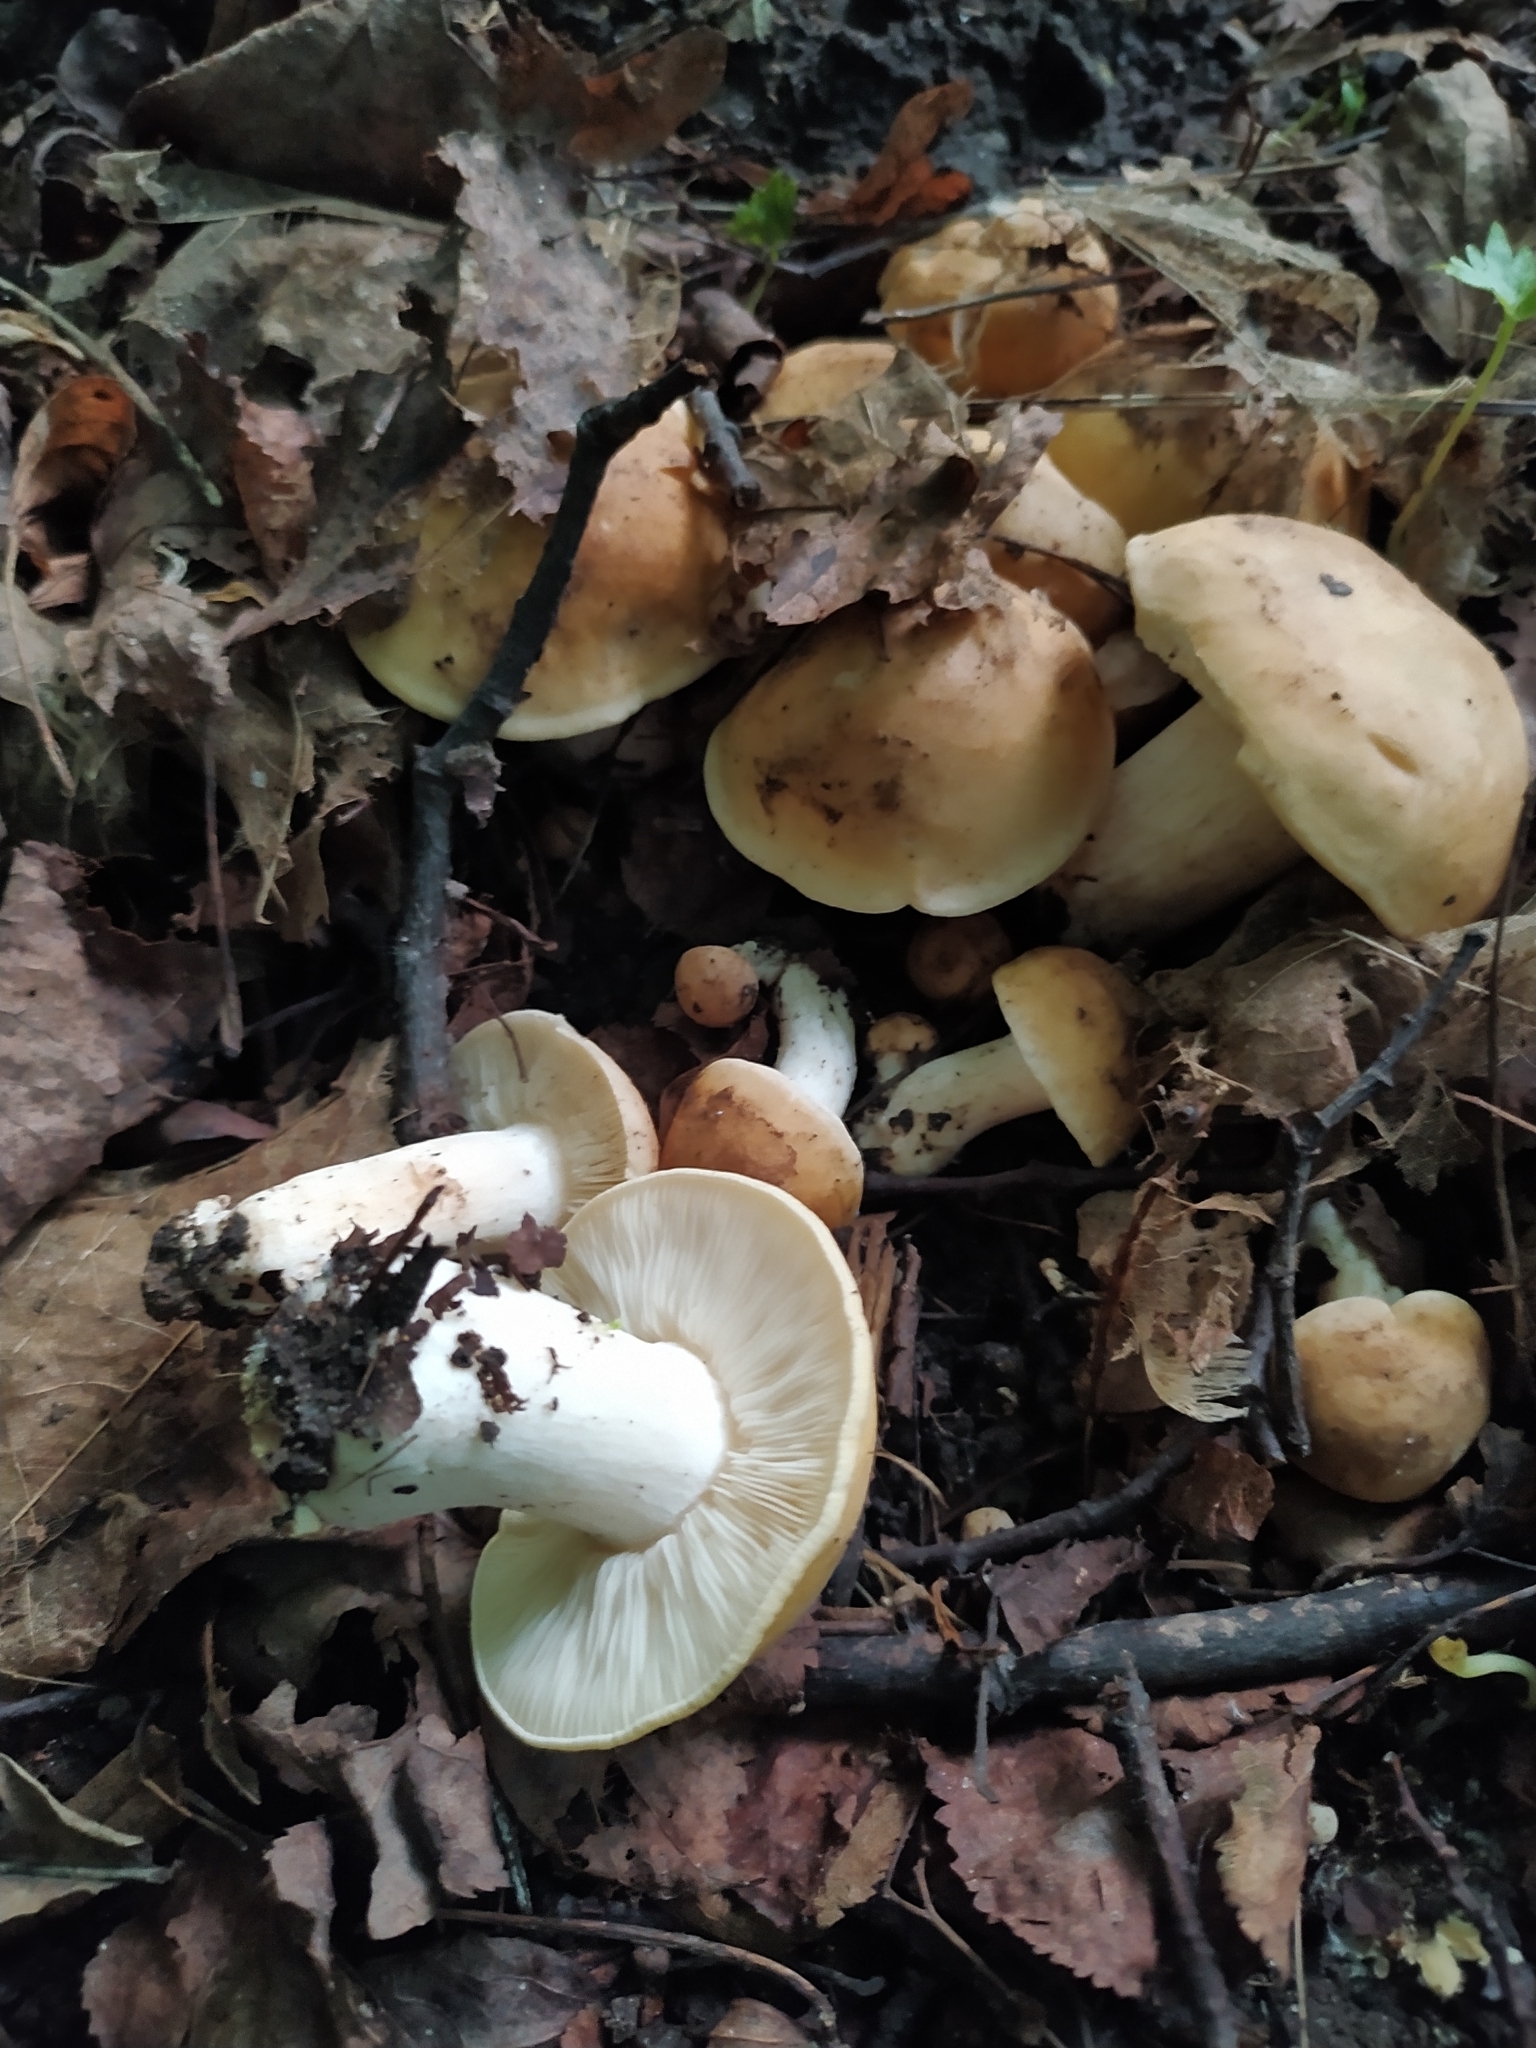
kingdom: Fungi
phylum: Basidiomycota
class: Agaricomycetes
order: Agaricales
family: Lyophyllaceae
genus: Calocybe
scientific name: Calocybe gambosa
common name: St. george's mushroom
